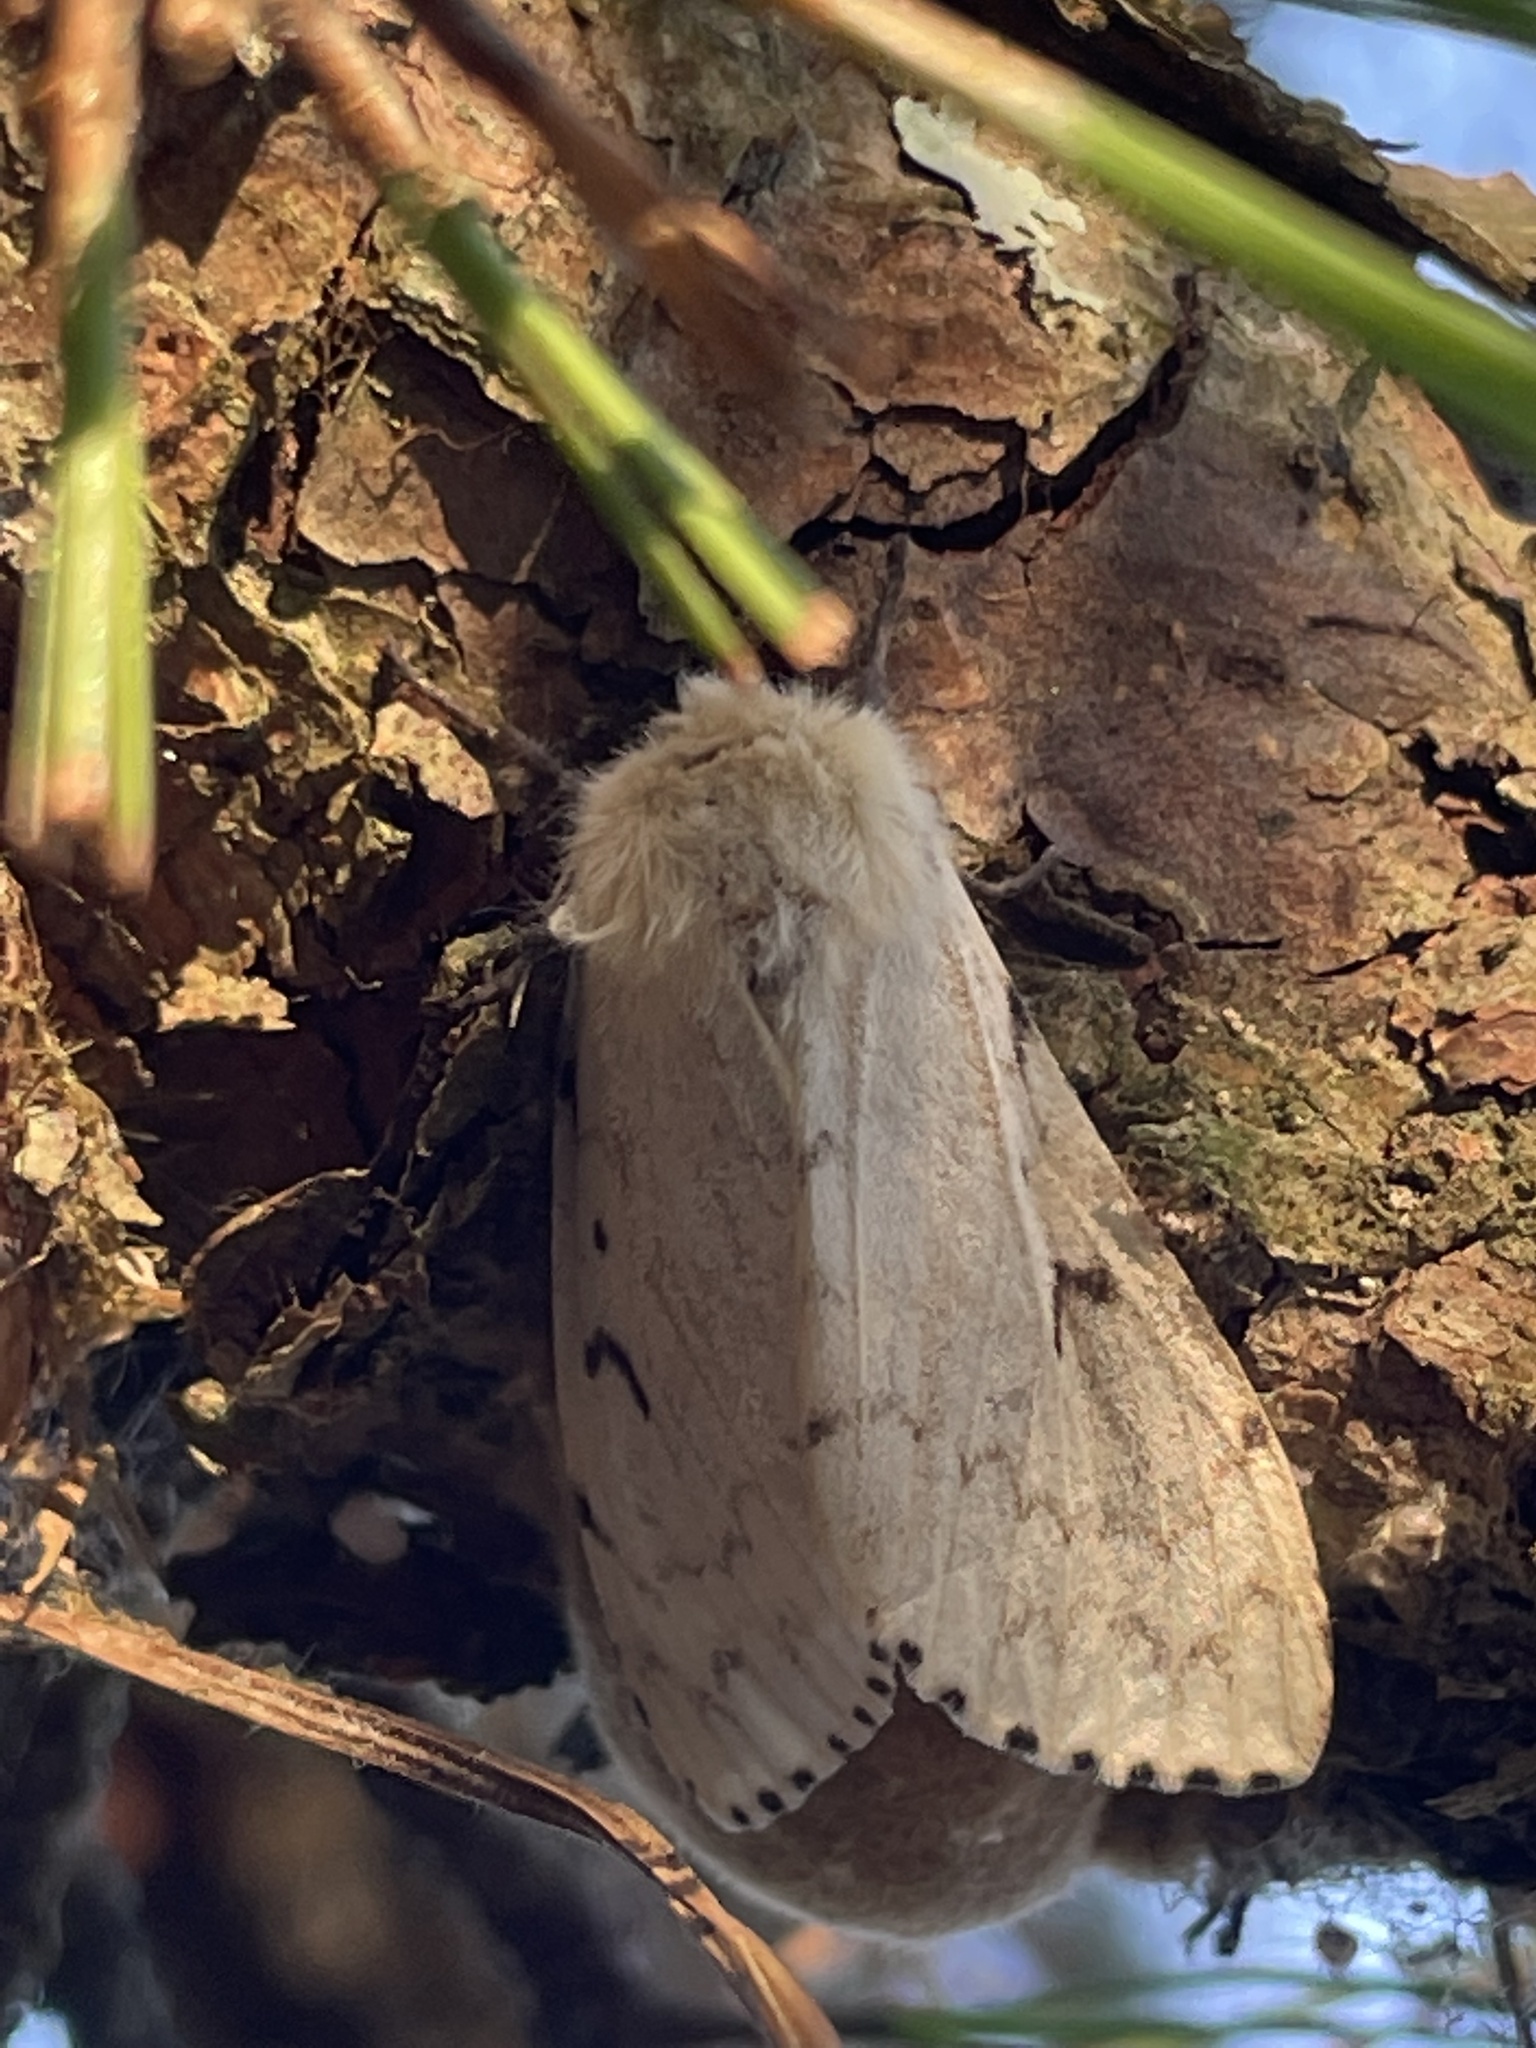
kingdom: Animalia
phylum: Arthropoda
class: Insecta
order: Lepidoptera
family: Erebidae
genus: Lymantria
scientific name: Lymantria dispar
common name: Gypsy moth
